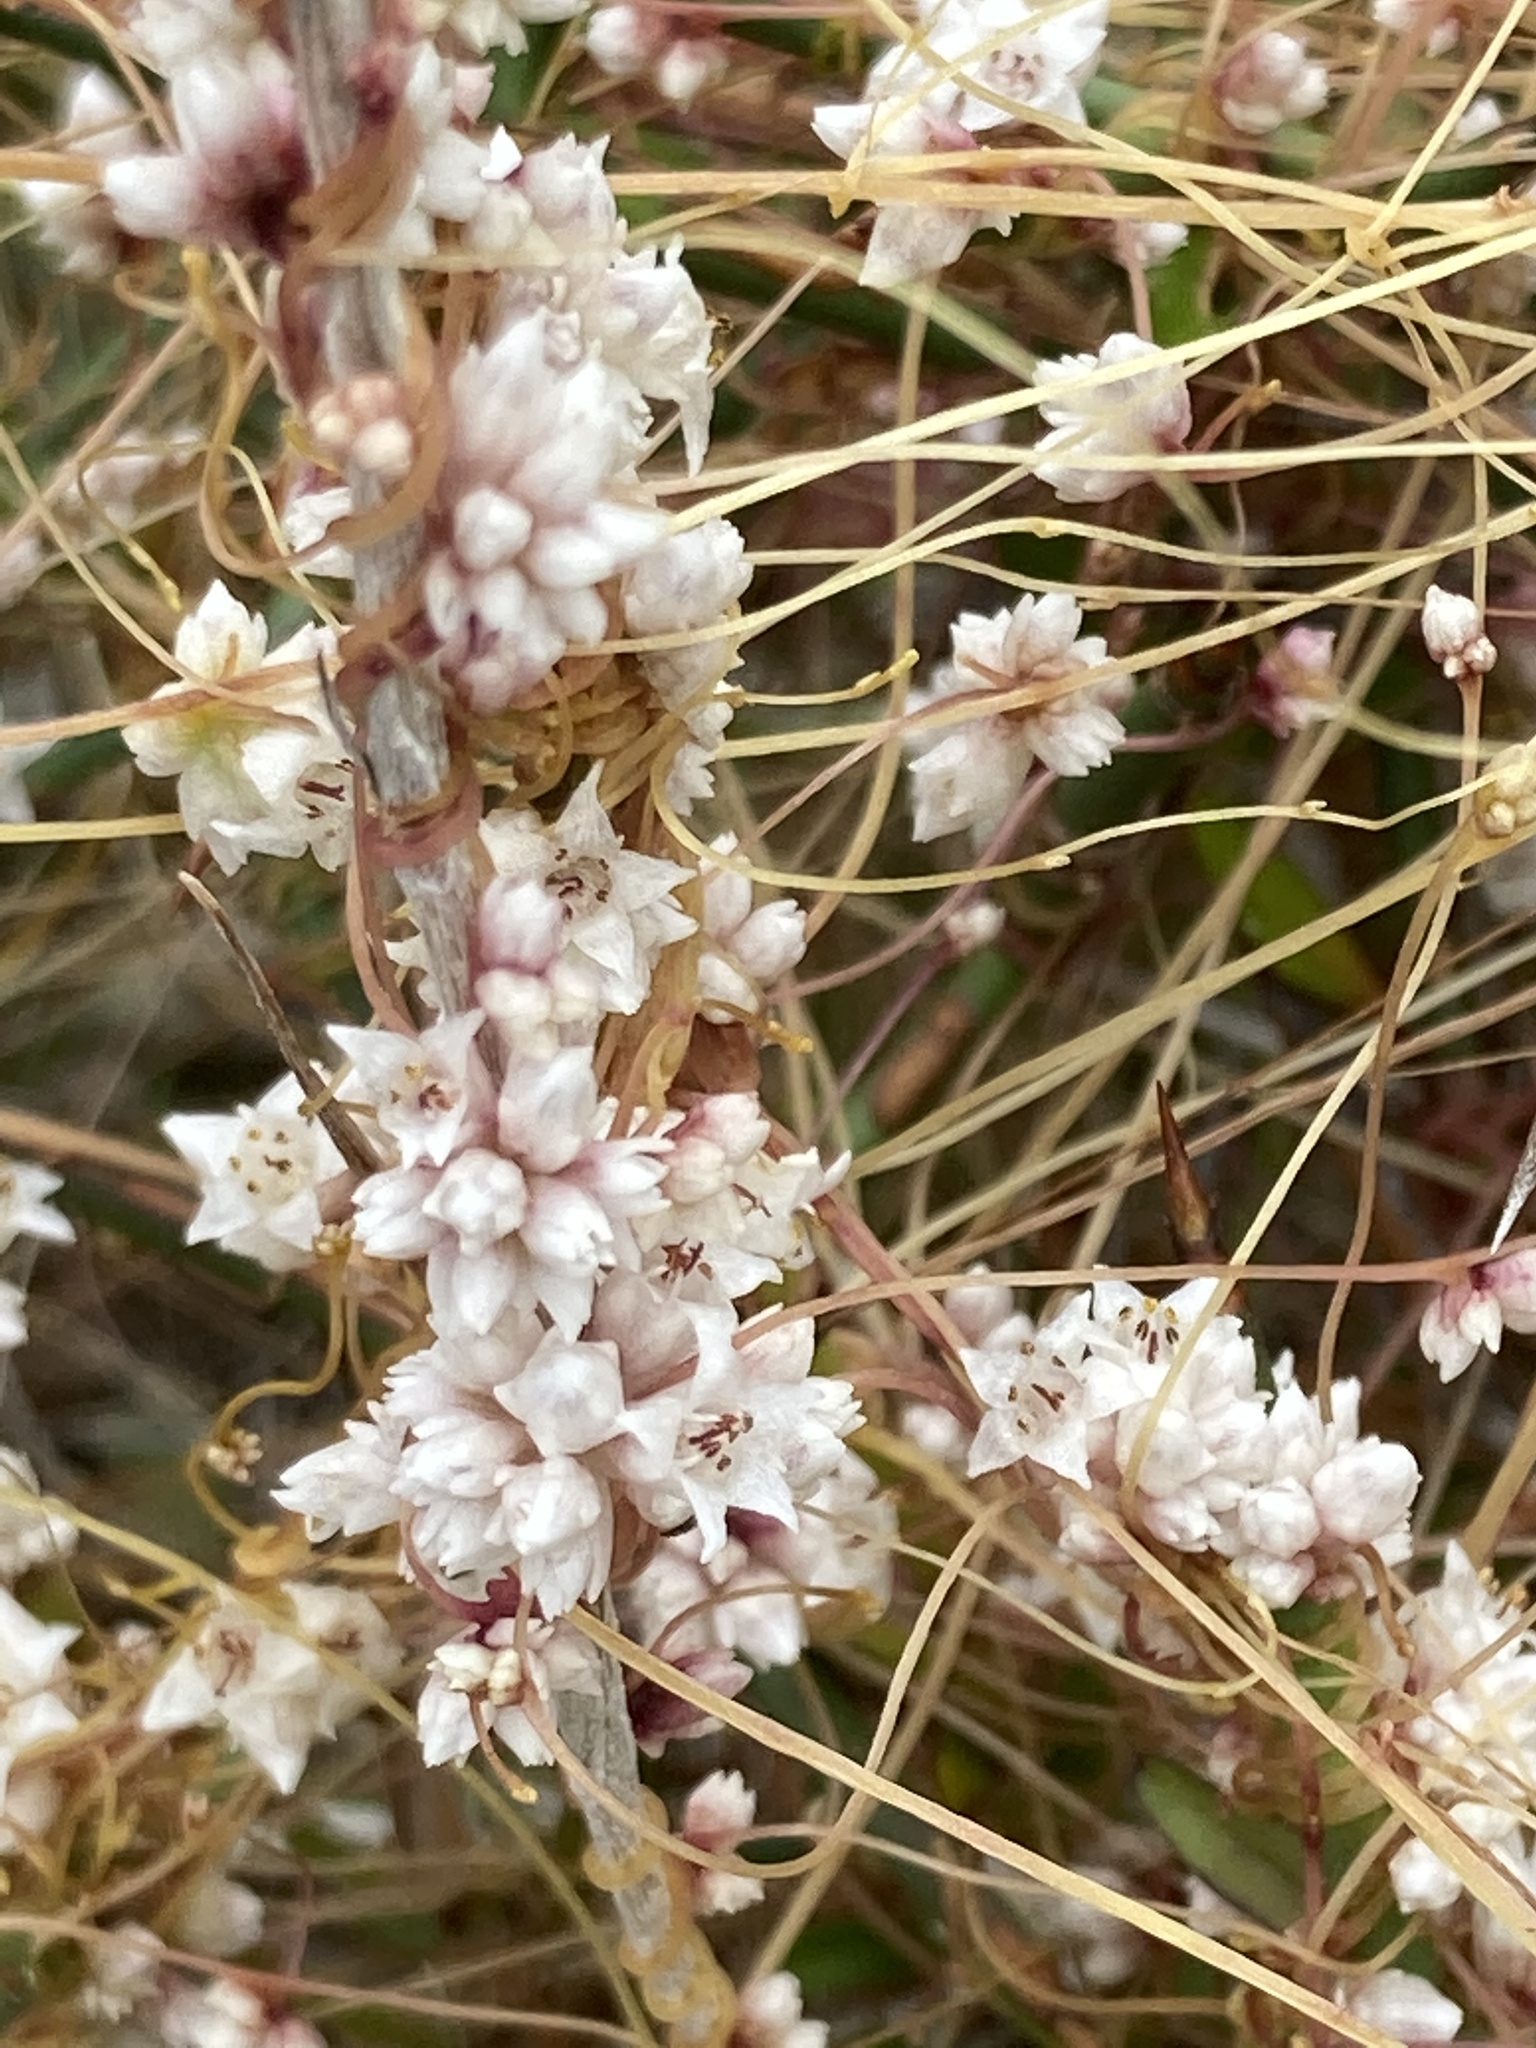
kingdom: Plantae
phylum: Tracheophyta
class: Magnoliopsida
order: Solanales
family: Convolvulaceae
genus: Cuscuta
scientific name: Cuscuta epithymum
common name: Clover dodder
